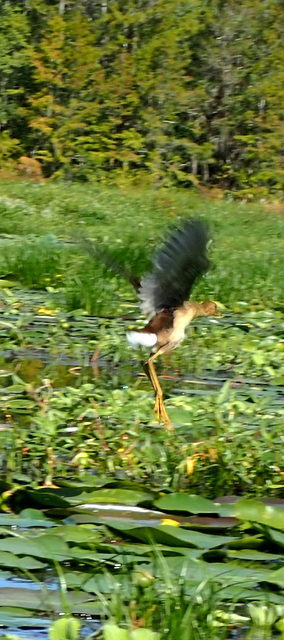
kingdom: Animalia
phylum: Chordata
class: Aves
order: Gruiformes
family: Rallidae
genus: Gallinula
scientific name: Gallinula chloropus
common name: Common moorhen
